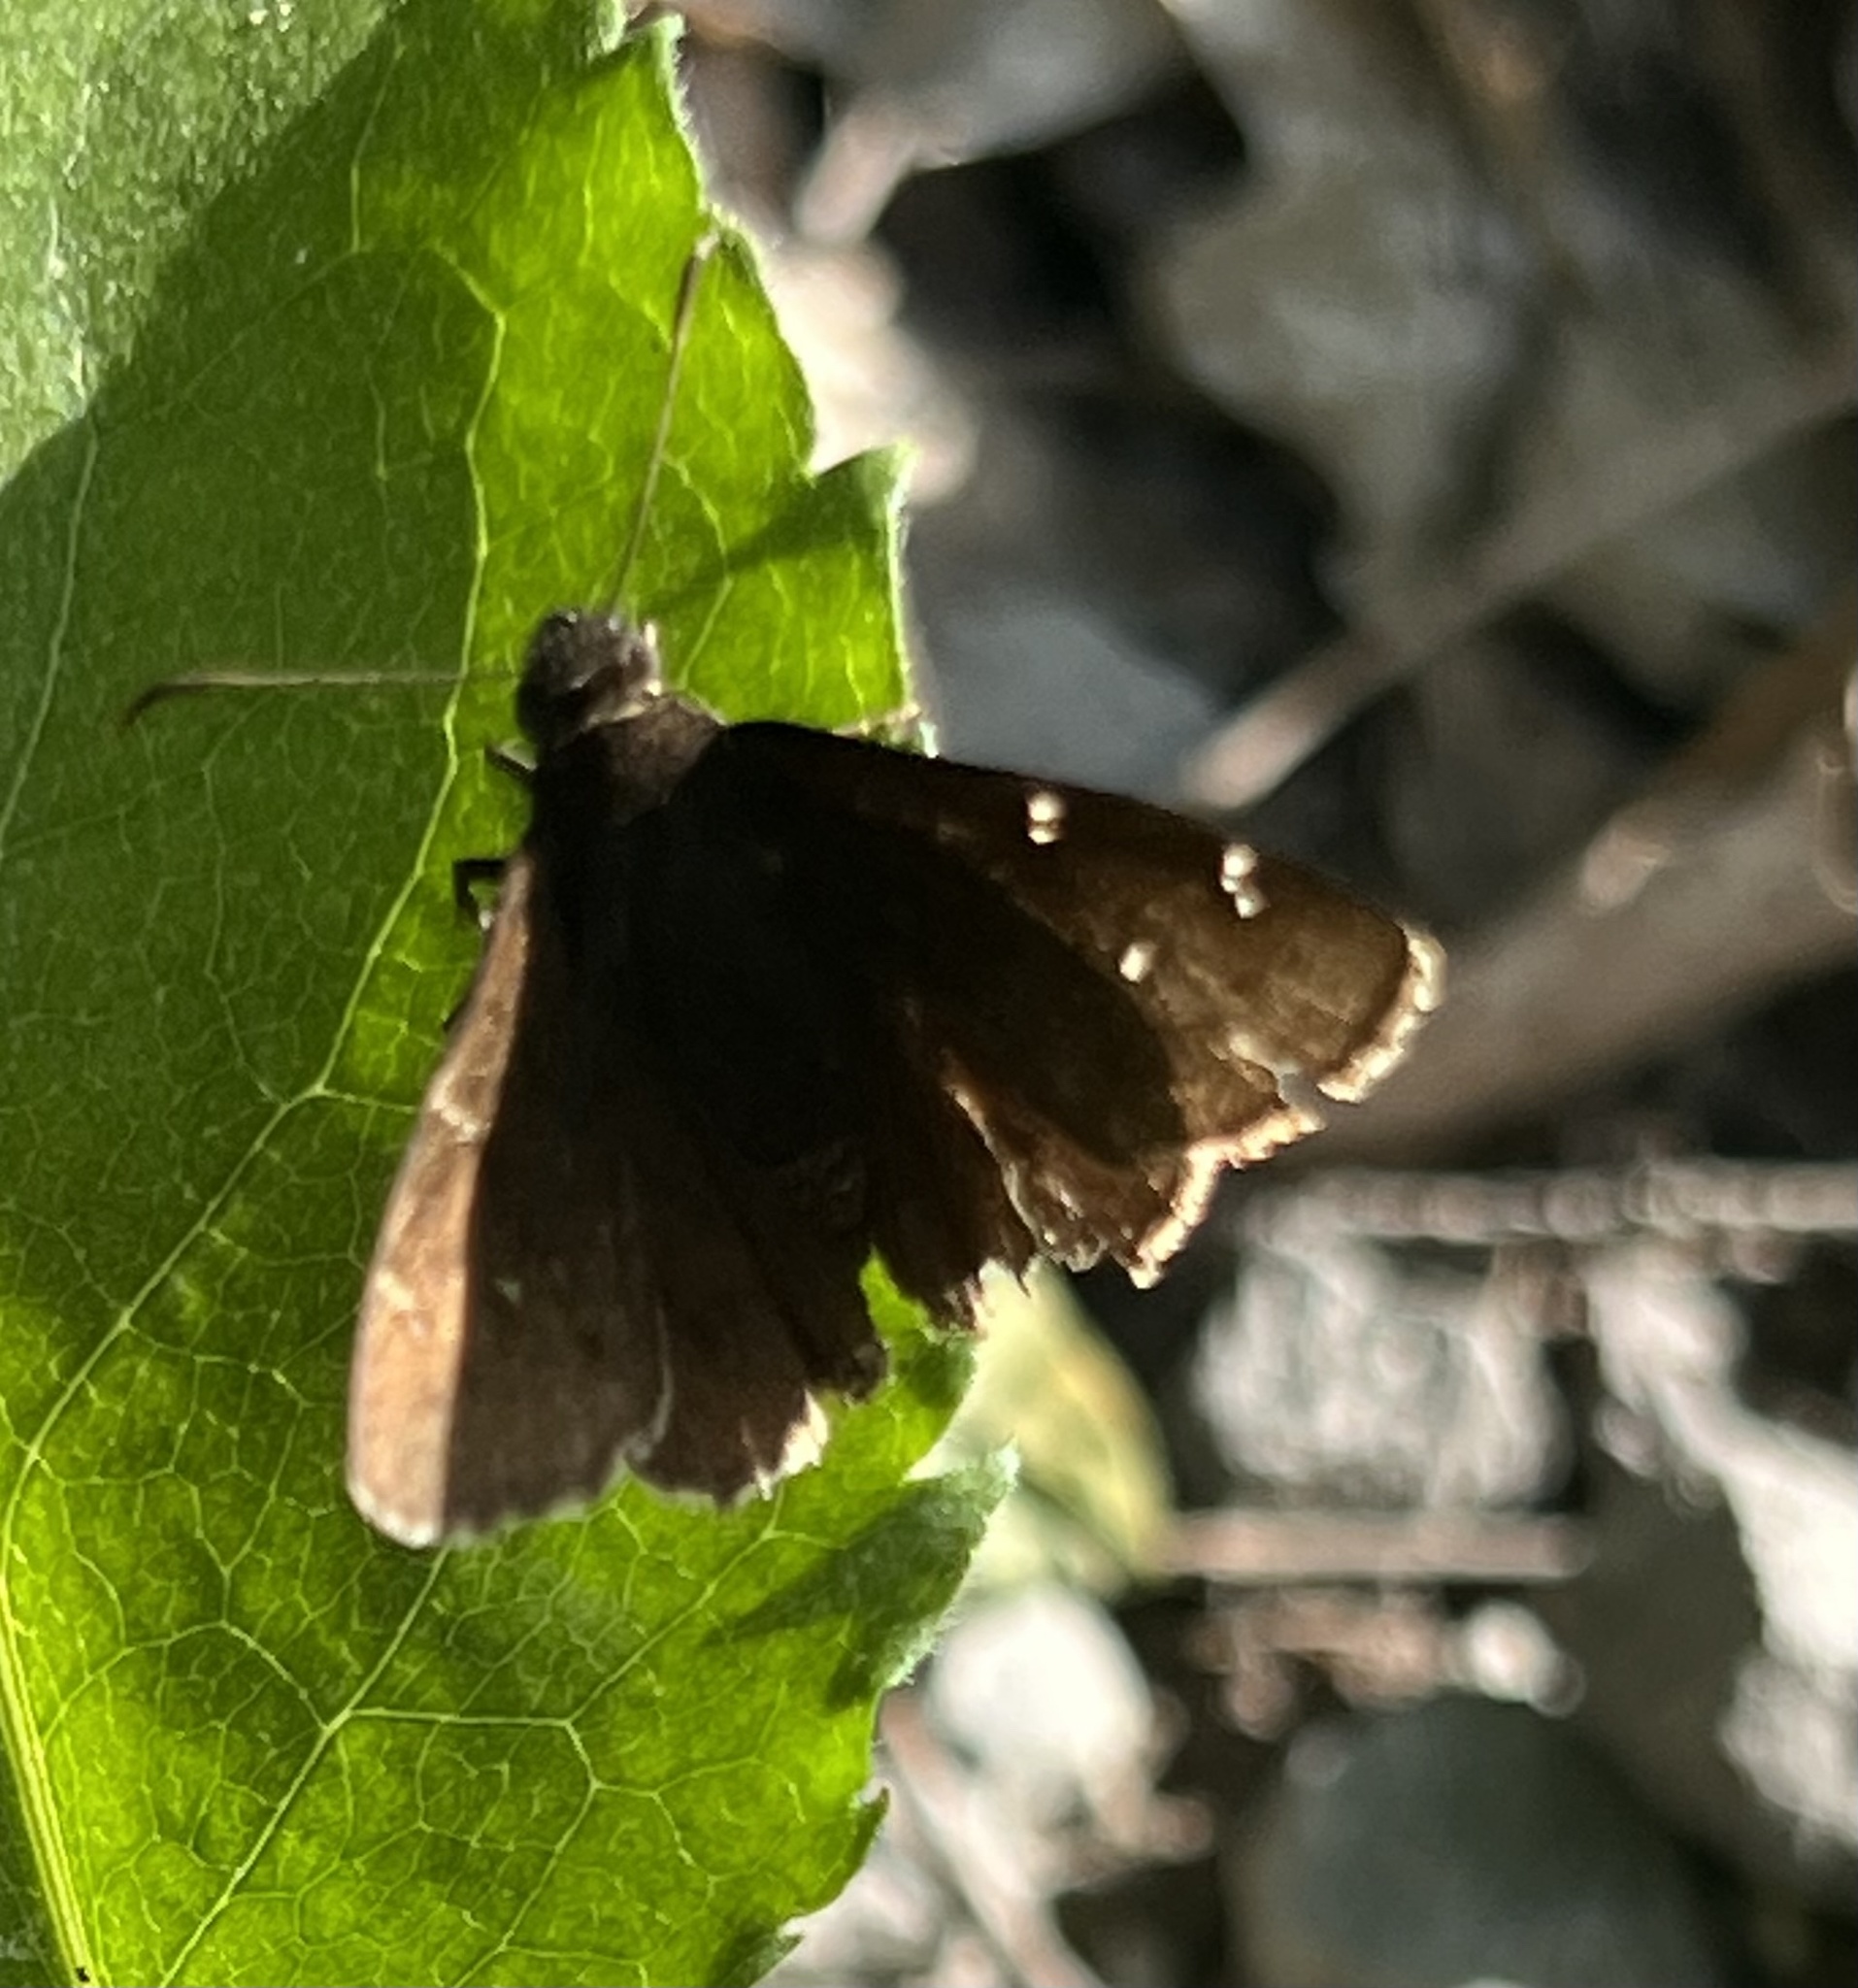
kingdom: Animalia
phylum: Arthropoda
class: Insecta
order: Lepidoptera
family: Hesperiidae
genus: Thorybes
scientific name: Thorybes pylades
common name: Northern cloudywing
